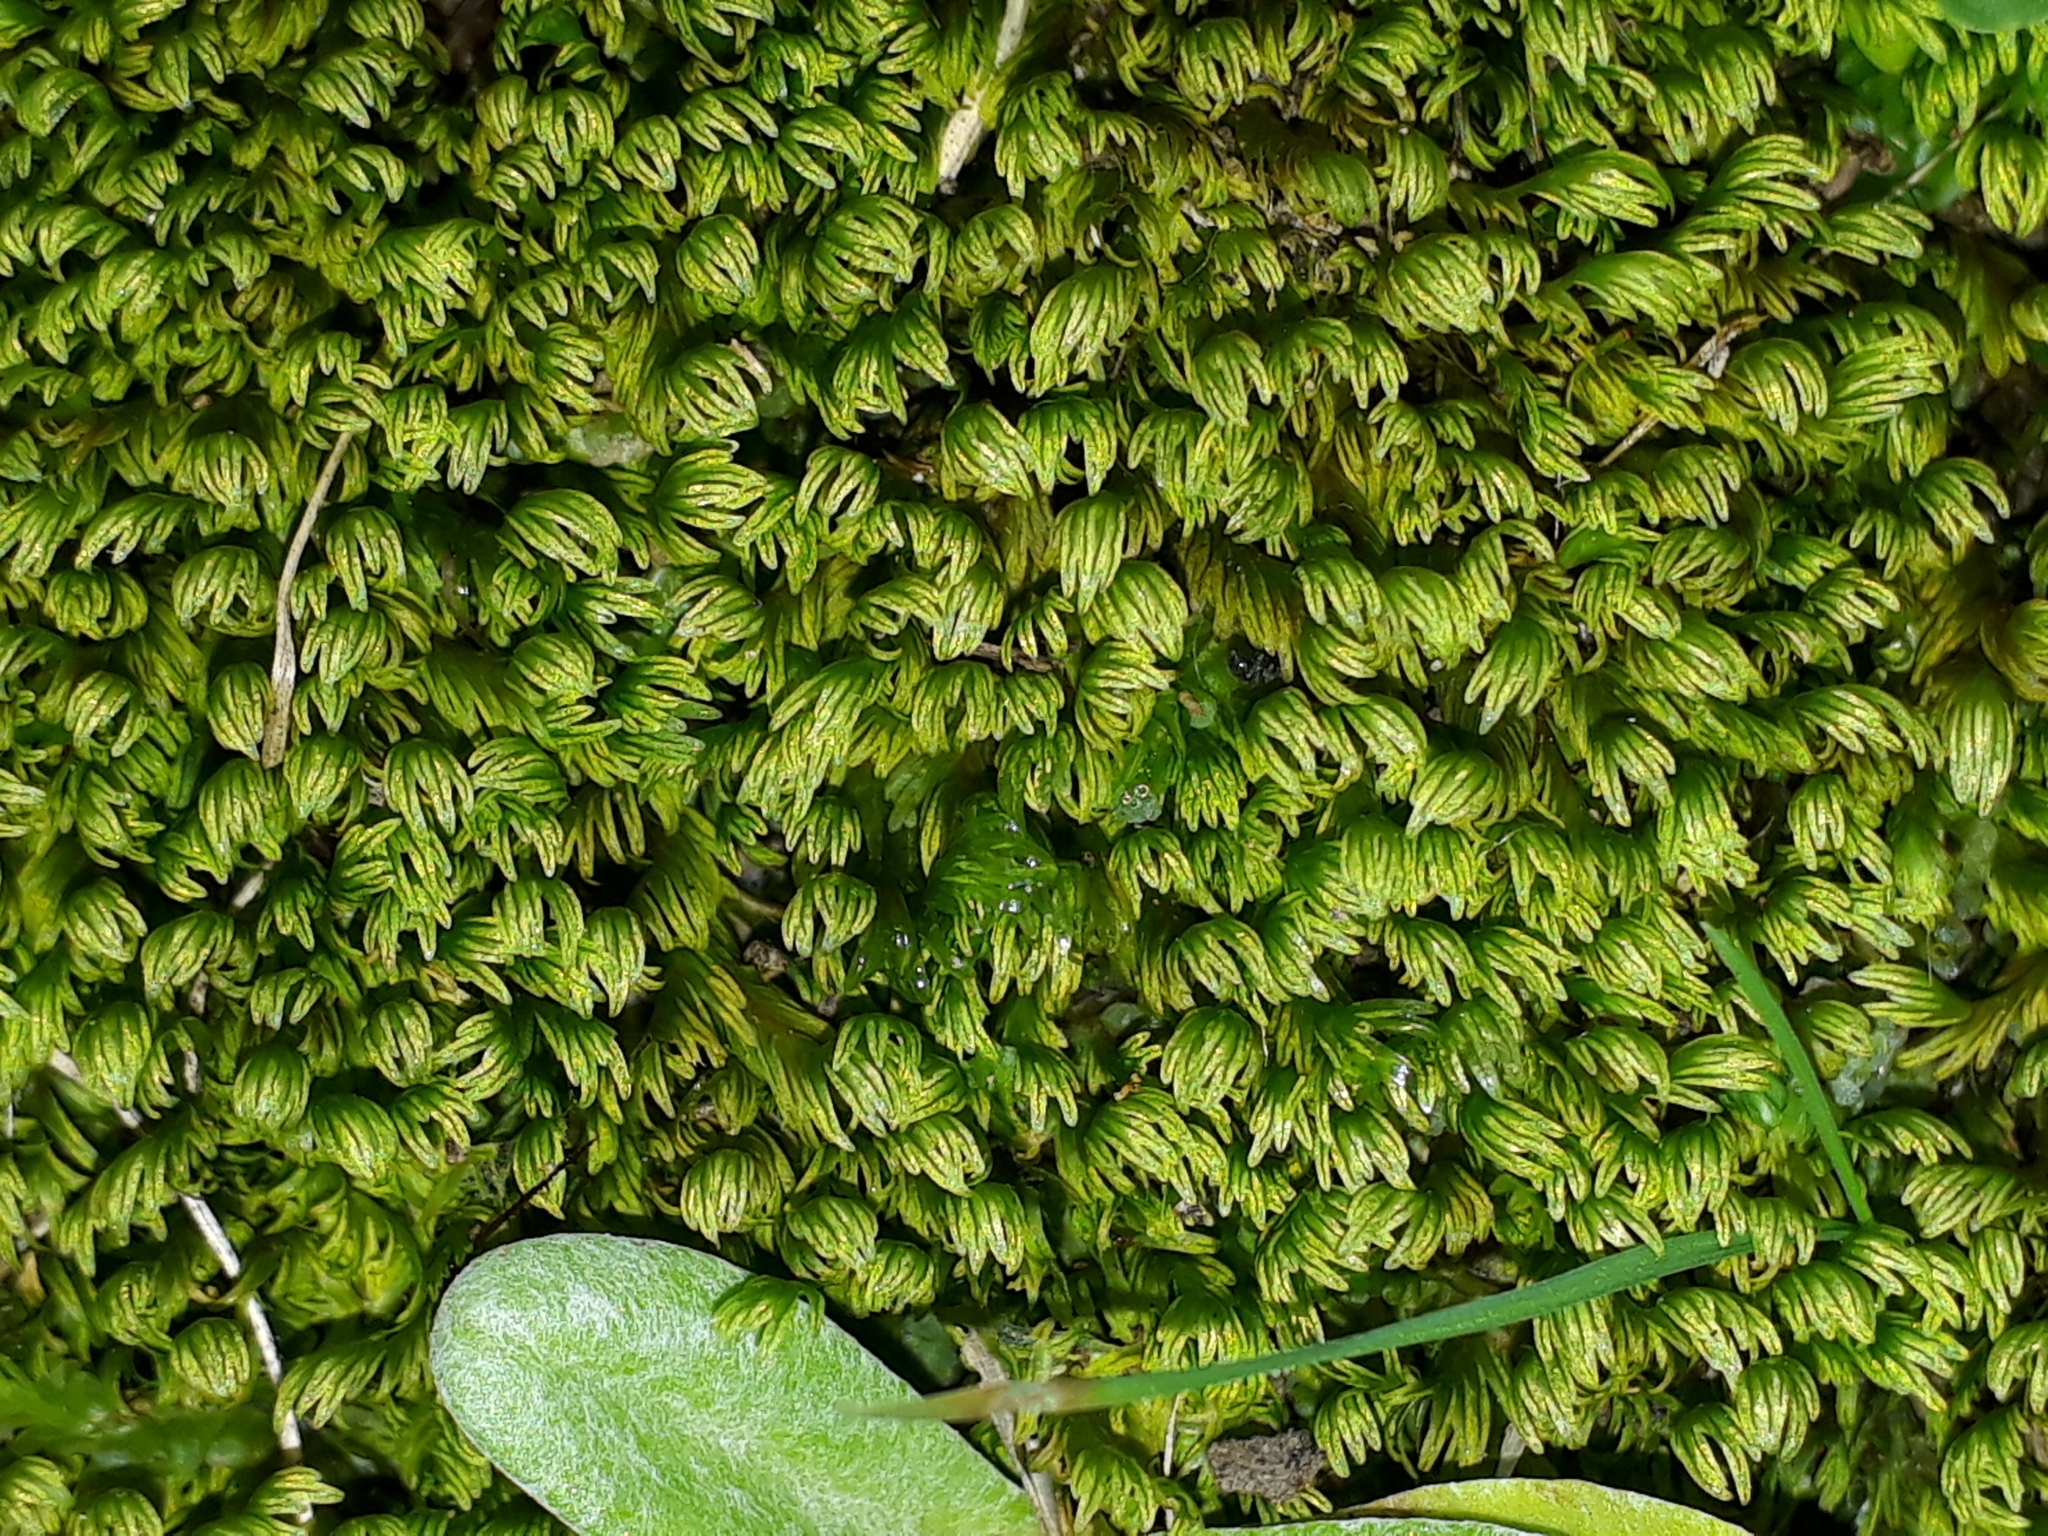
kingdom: Plantae
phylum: Bryophyta
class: Bryopsida
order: Dicranales
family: Fissidentaceae
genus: Fissidens
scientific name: Fissidens asplenioides
